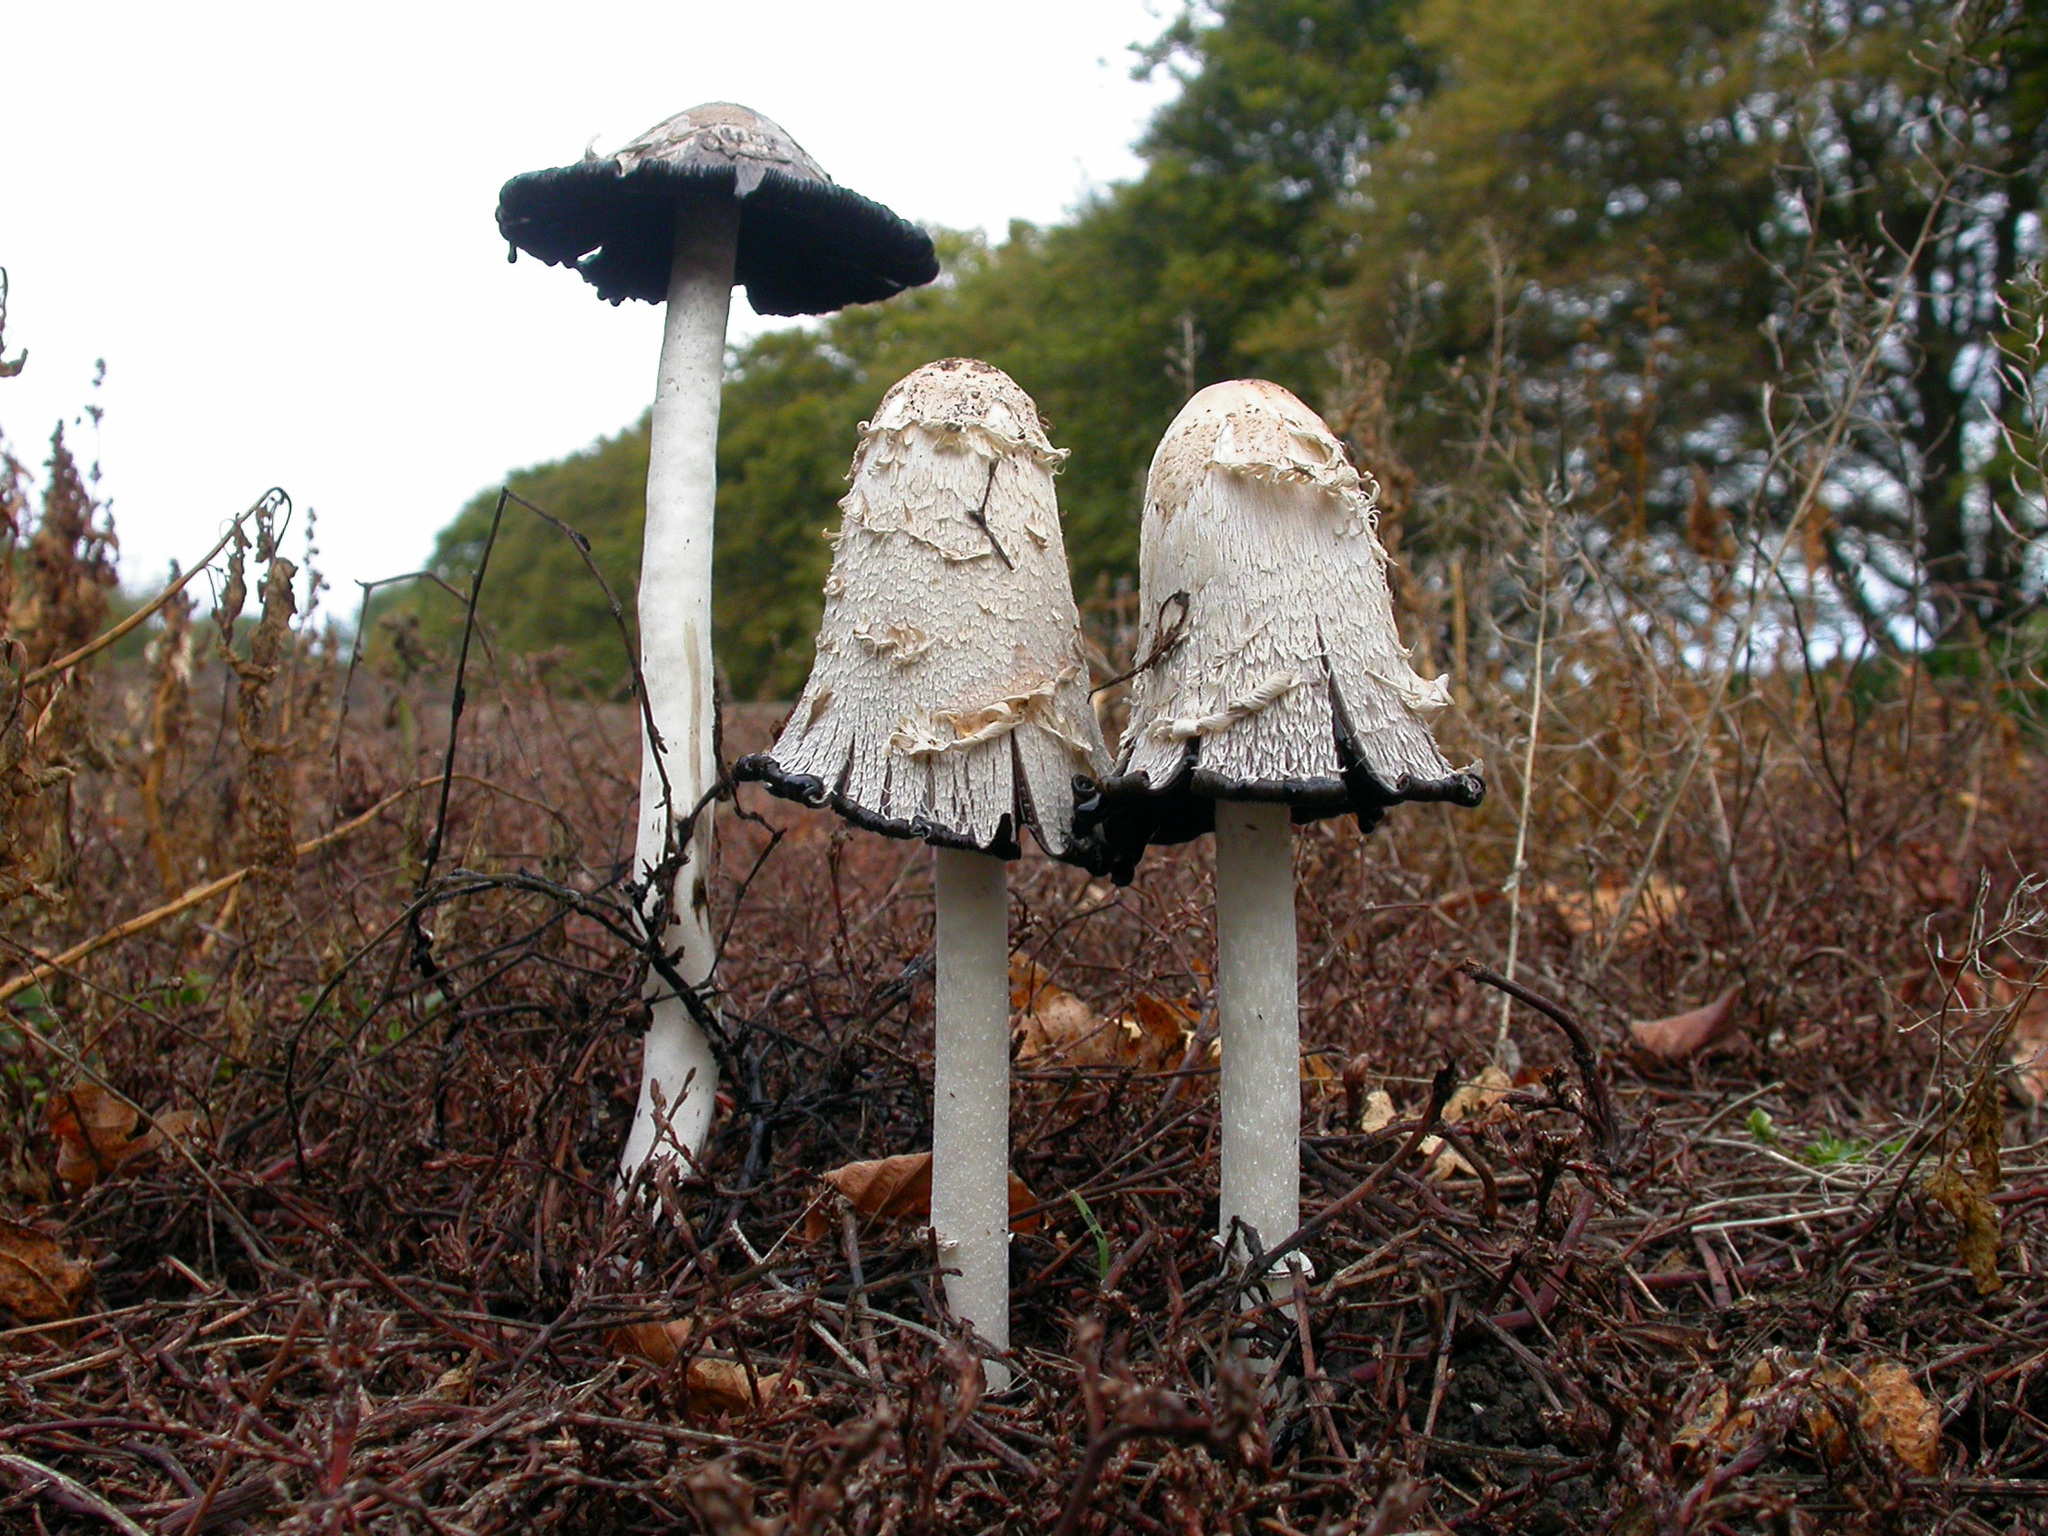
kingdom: Fungi
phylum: Basidiomycota
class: Agaricomycetes
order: Agaricales
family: Agaricaceae
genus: Coprinus
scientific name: Coprinus comatus
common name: Lawyer's wig
